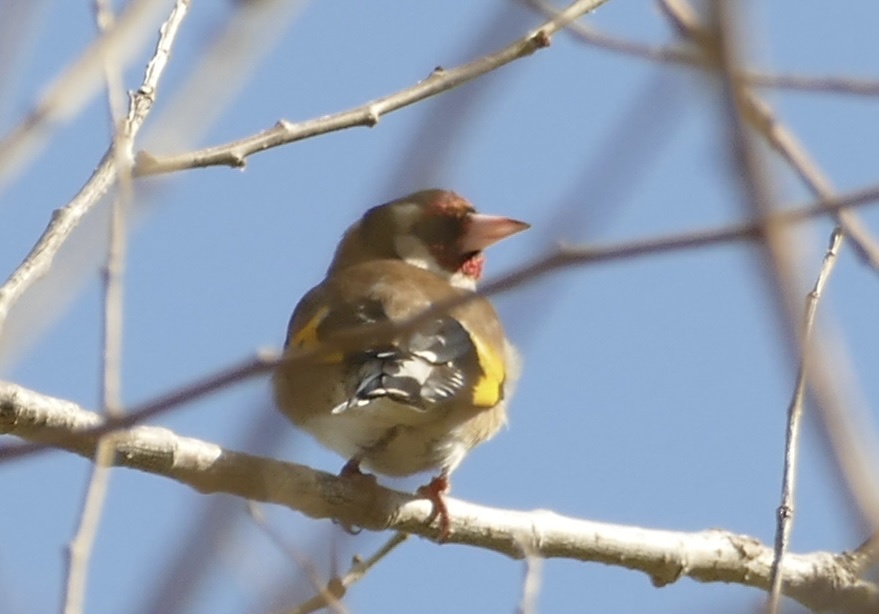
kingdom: Animalia
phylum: Chordata
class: Aves
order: Passeriformes
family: Fringillidae
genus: Carduelis
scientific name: Carduelis carduelis
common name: European goldfinch
